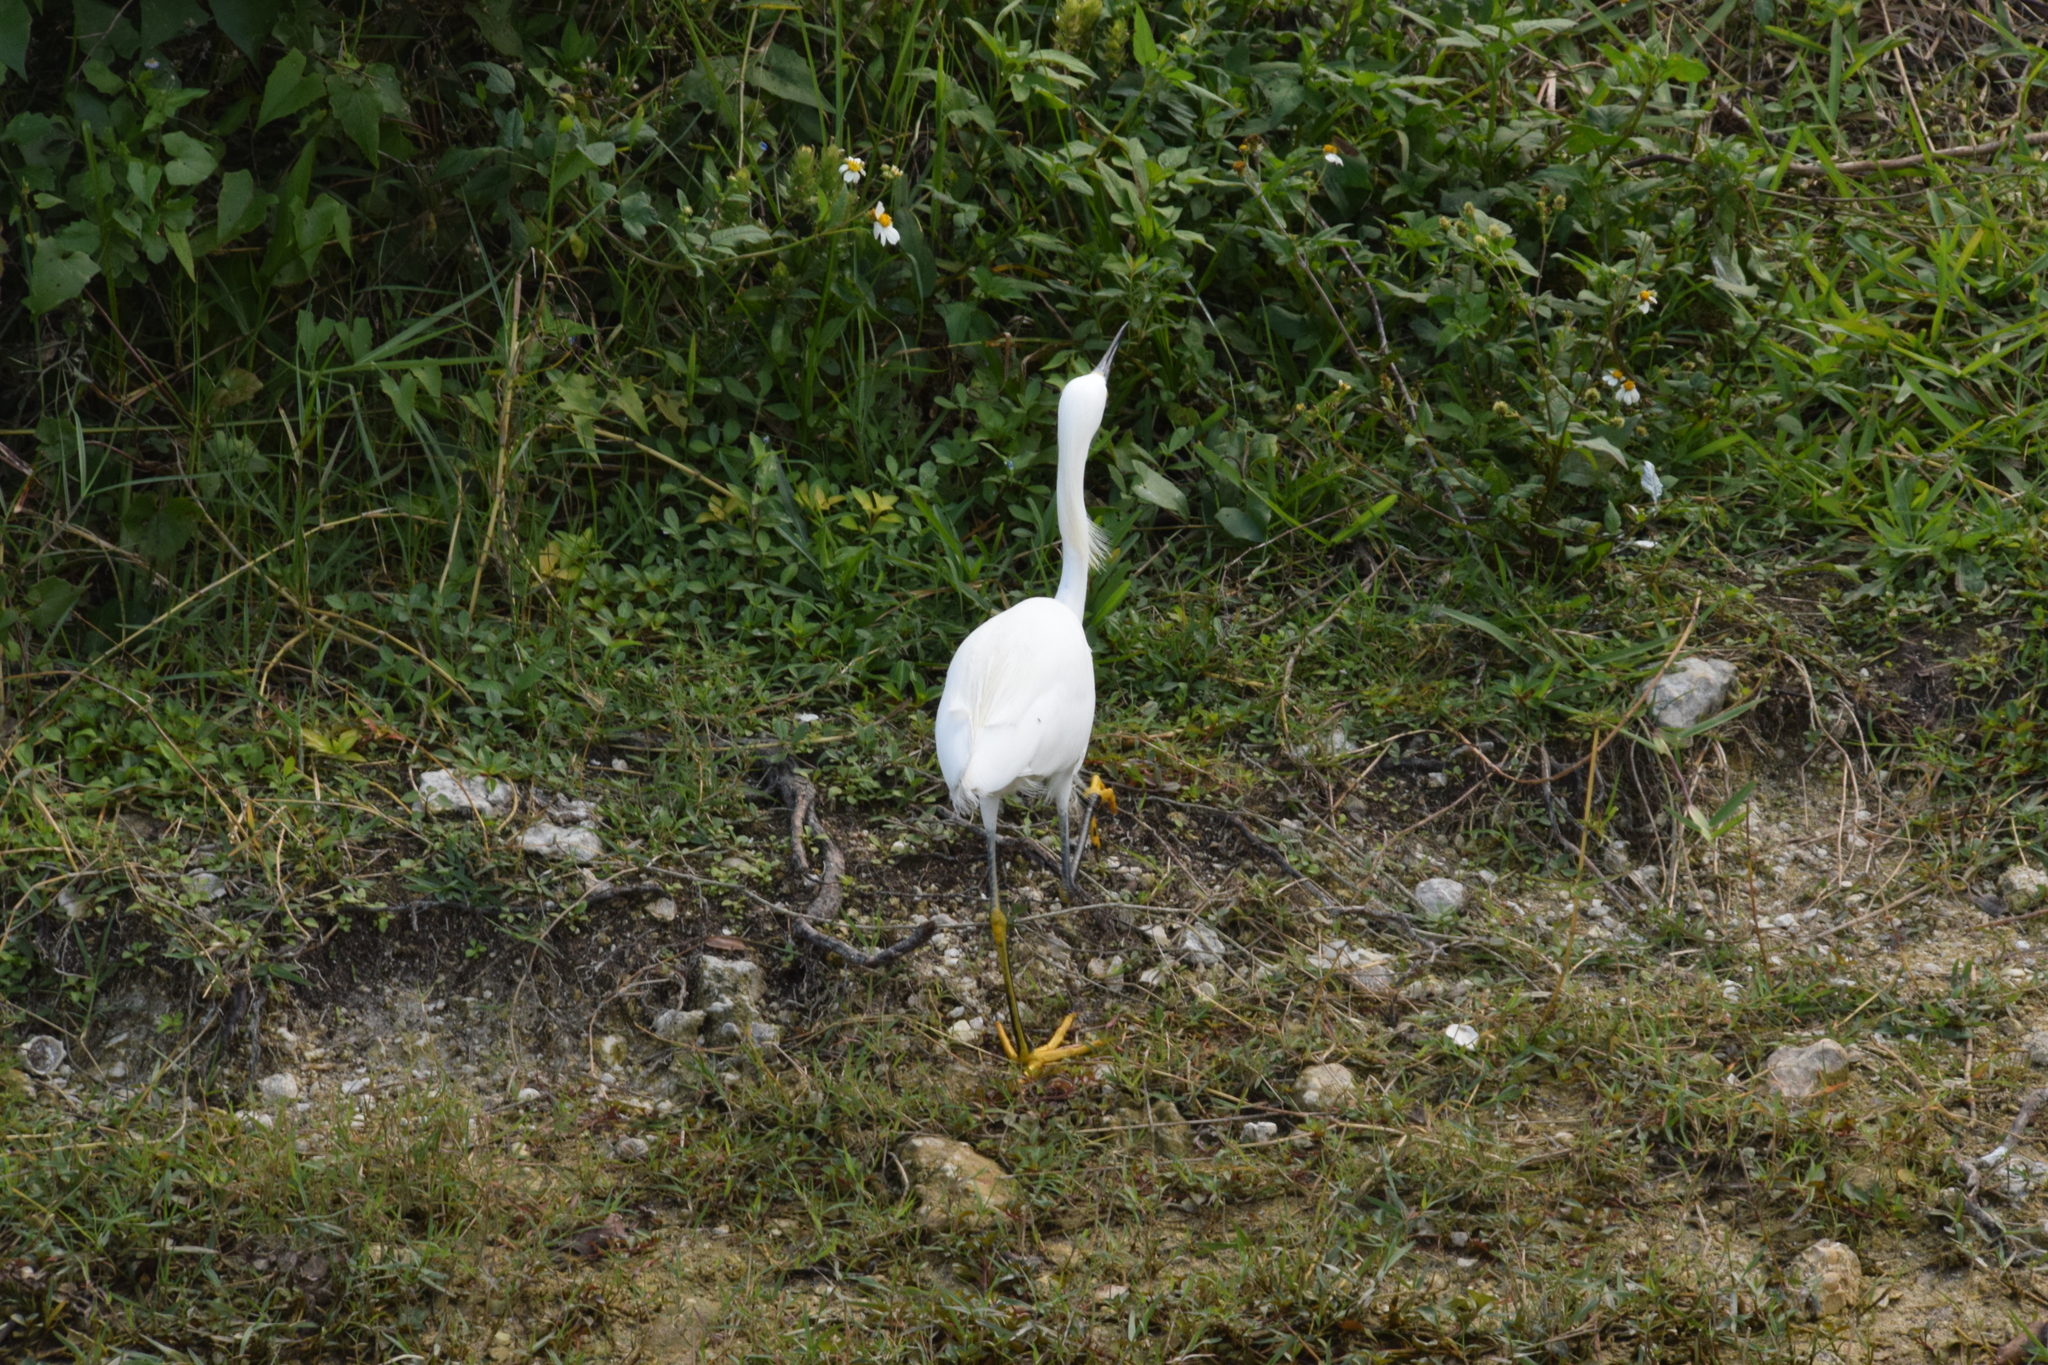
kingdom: Animalia
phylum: Chordata
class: Aves
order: Pelecaniformes
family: Ardeidae
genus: Egretta
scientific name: Egretta thula
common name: Snowy egret
